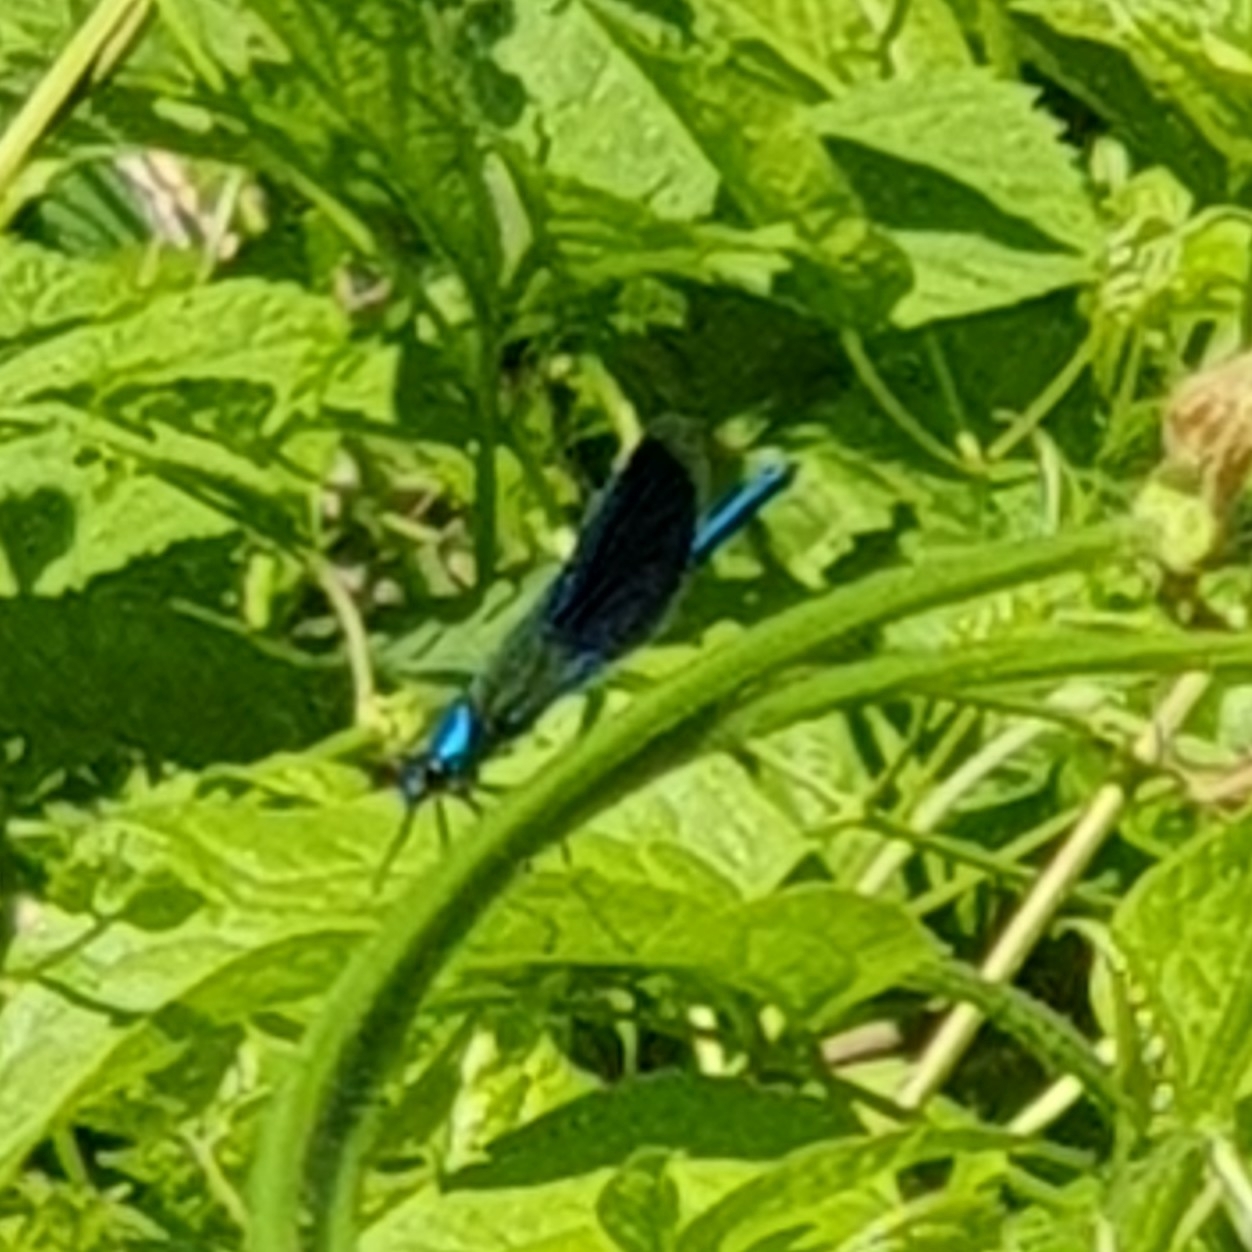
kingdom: Animalia
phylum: Arthropoda
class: Insecta
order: Odonata
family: Calopterygidae
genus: Calopteryx
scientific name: Calopteryx splendens
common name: Banded demoiselle
